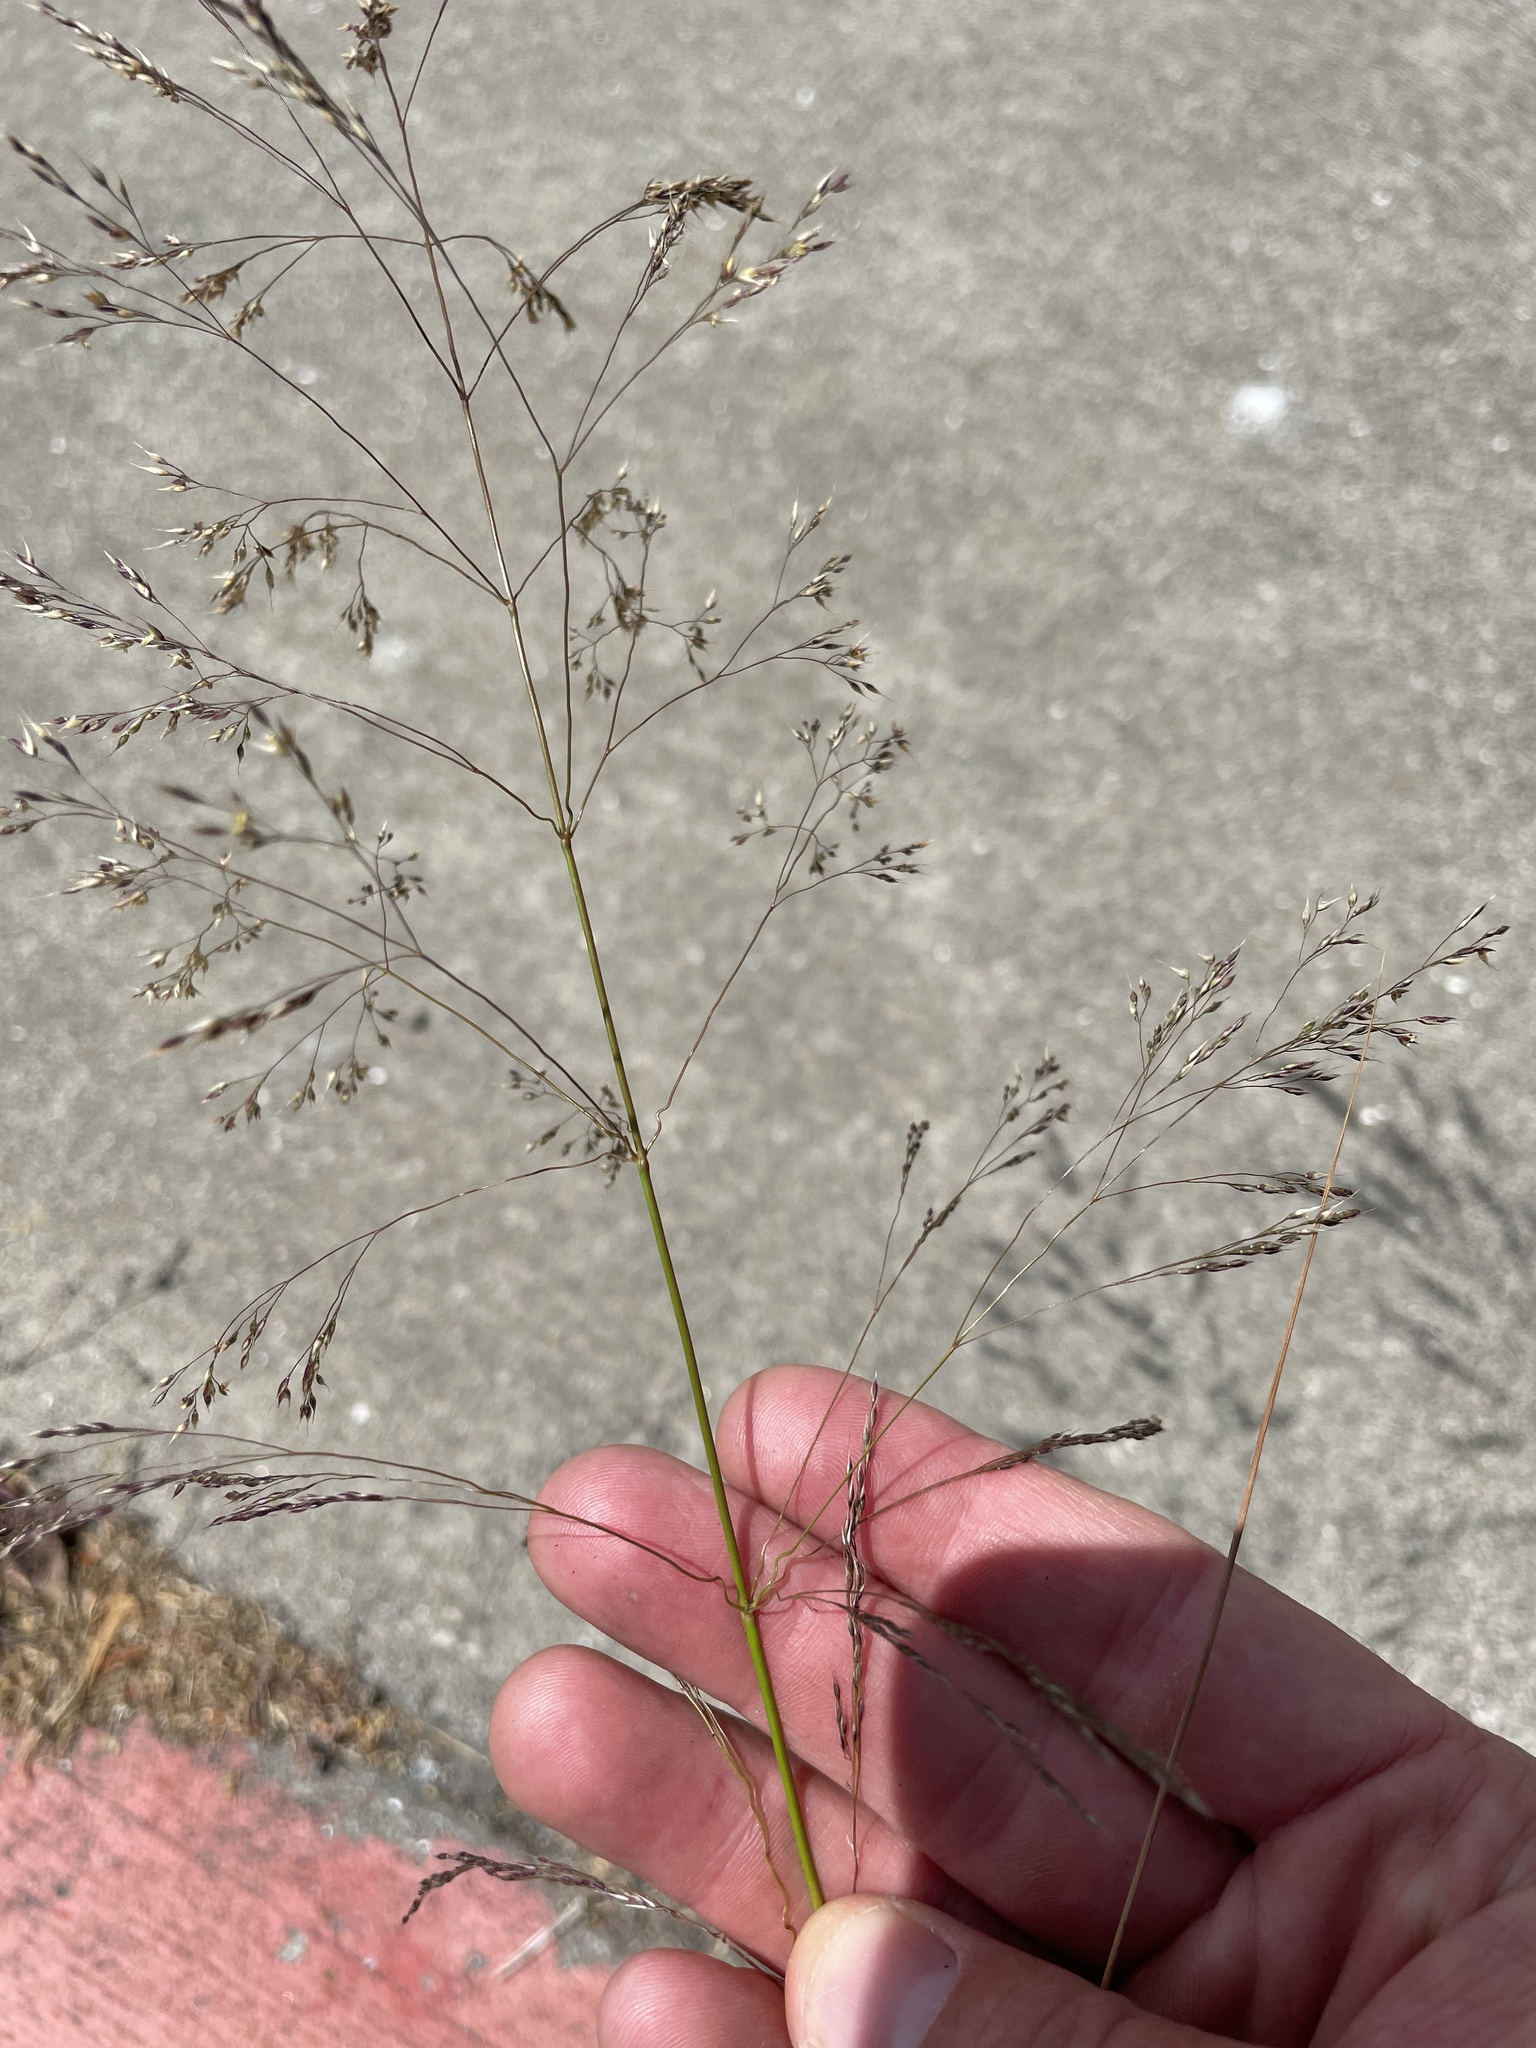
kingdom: Plantae
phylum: Tracheophyta
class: Liliopsida
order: Poales
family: Poaceae
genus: Oloptum
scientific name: Oloptum miliaceum
